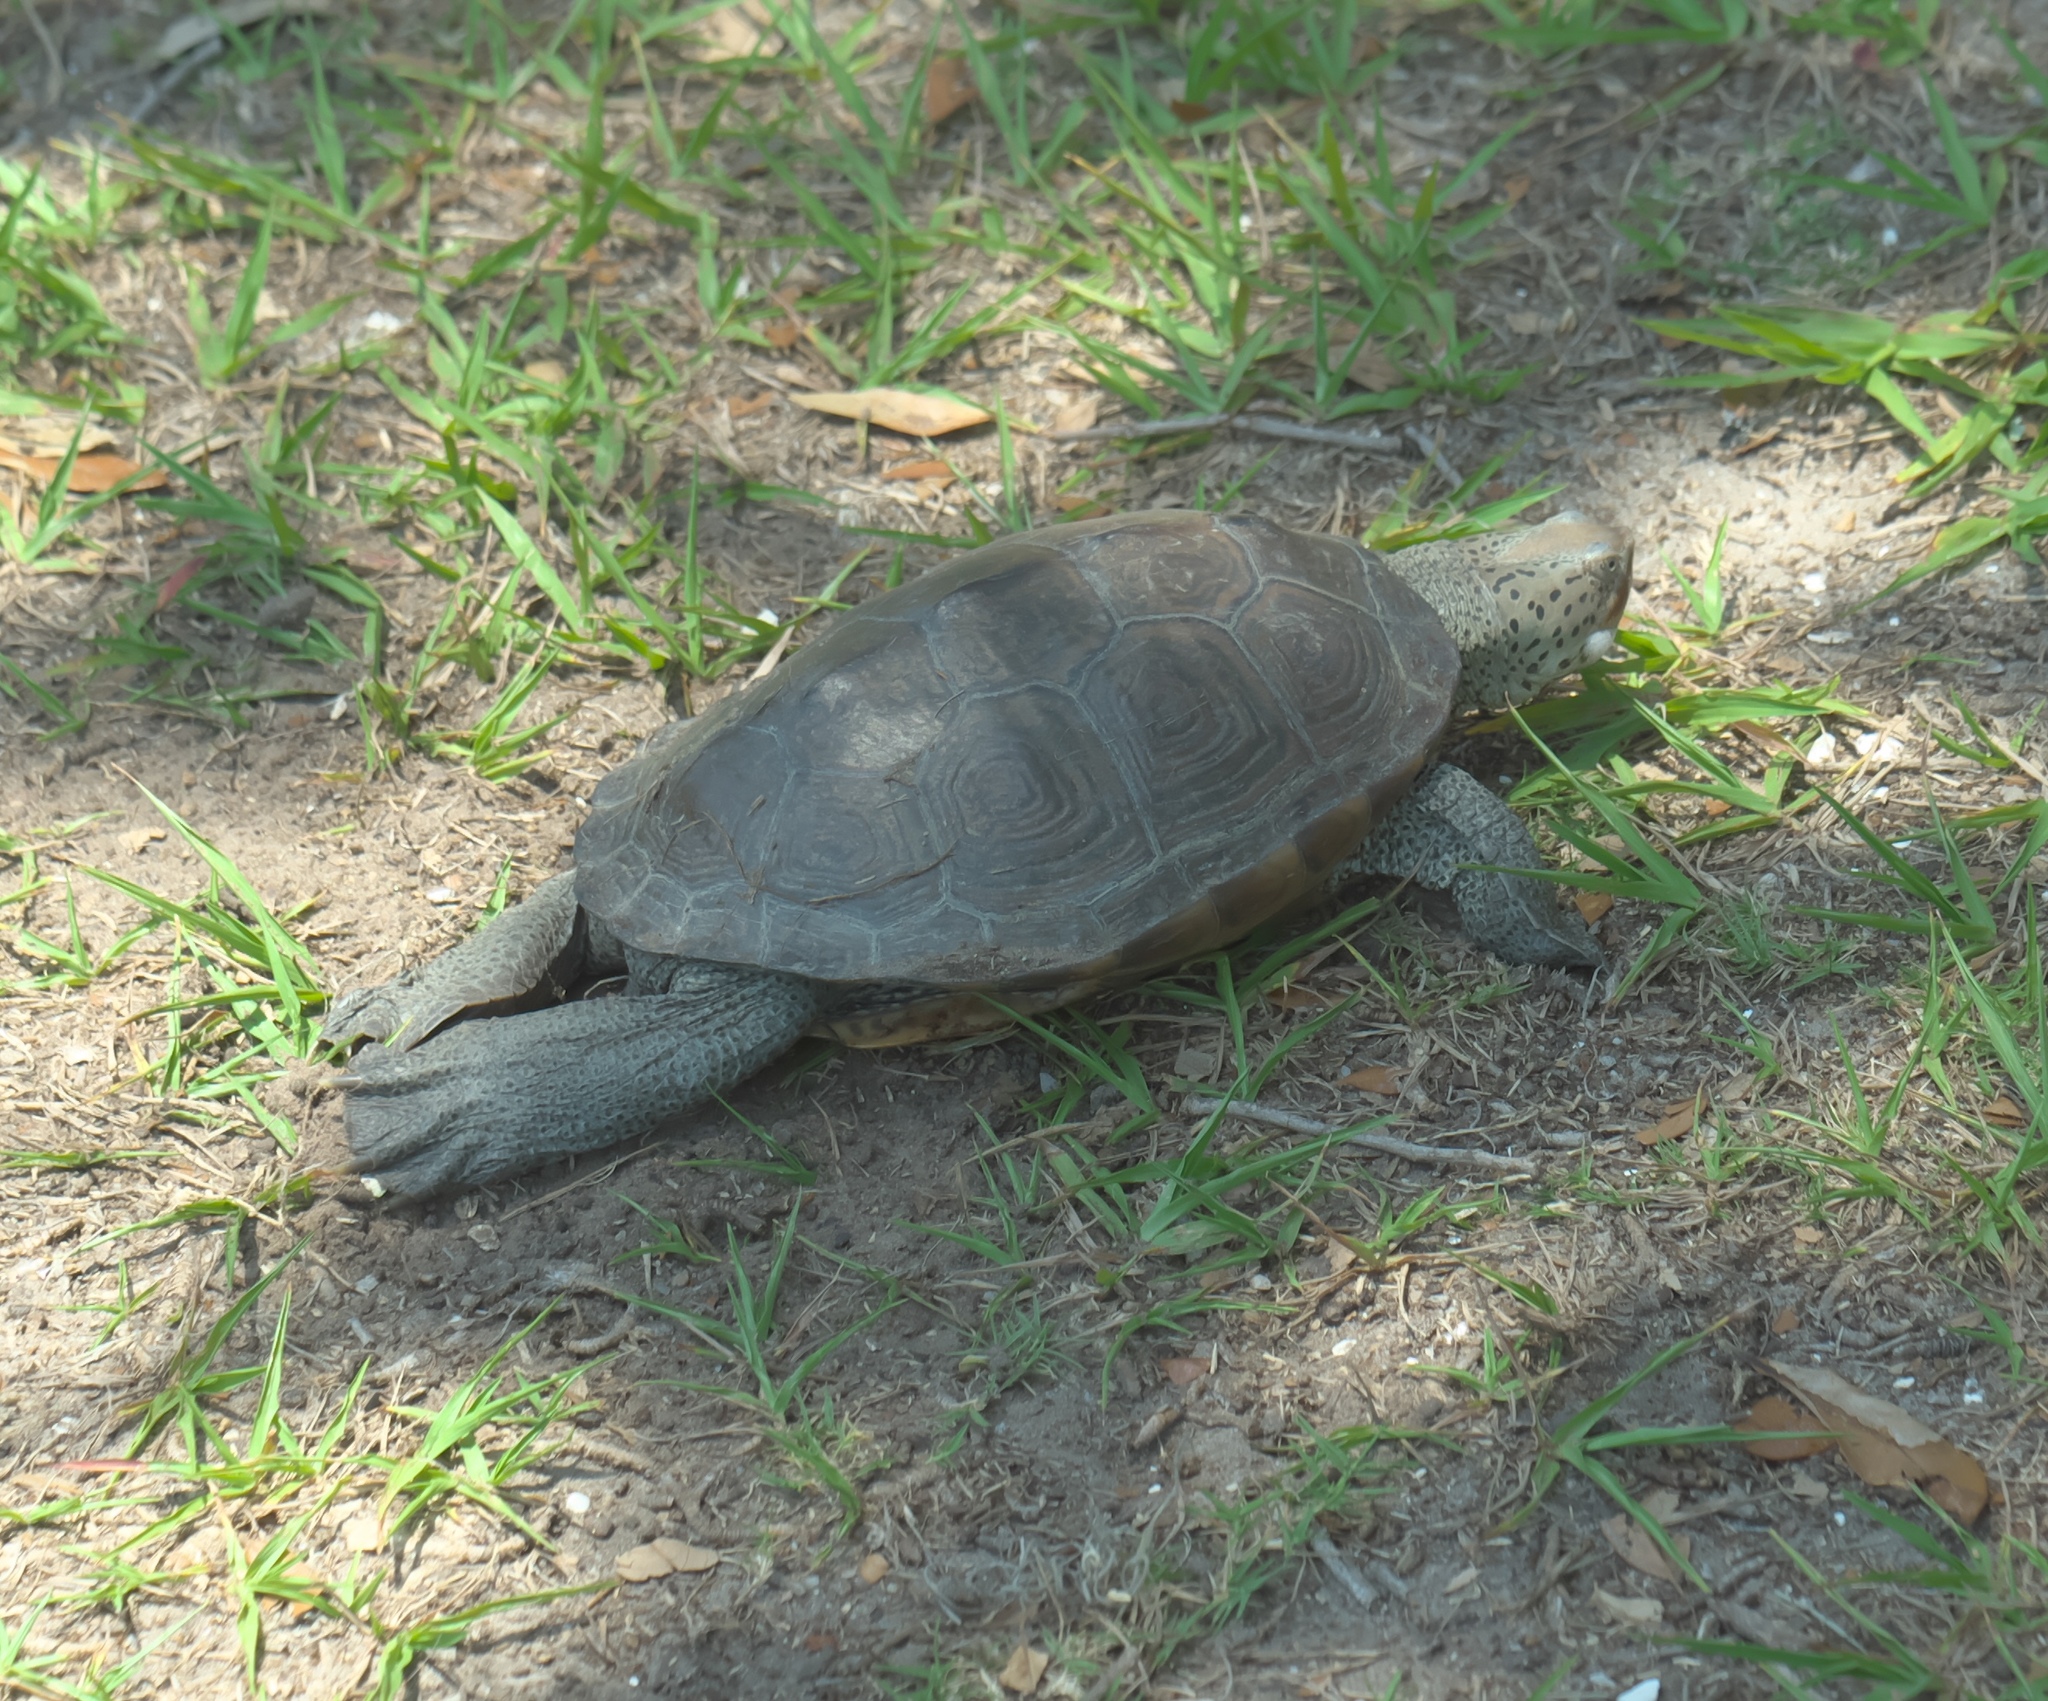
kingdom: Animalia
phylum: Chordata
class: Testudines
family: Emydidae
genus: Malaclemys
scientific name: Malaclemys terrapin
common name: Diamondback terrapin
